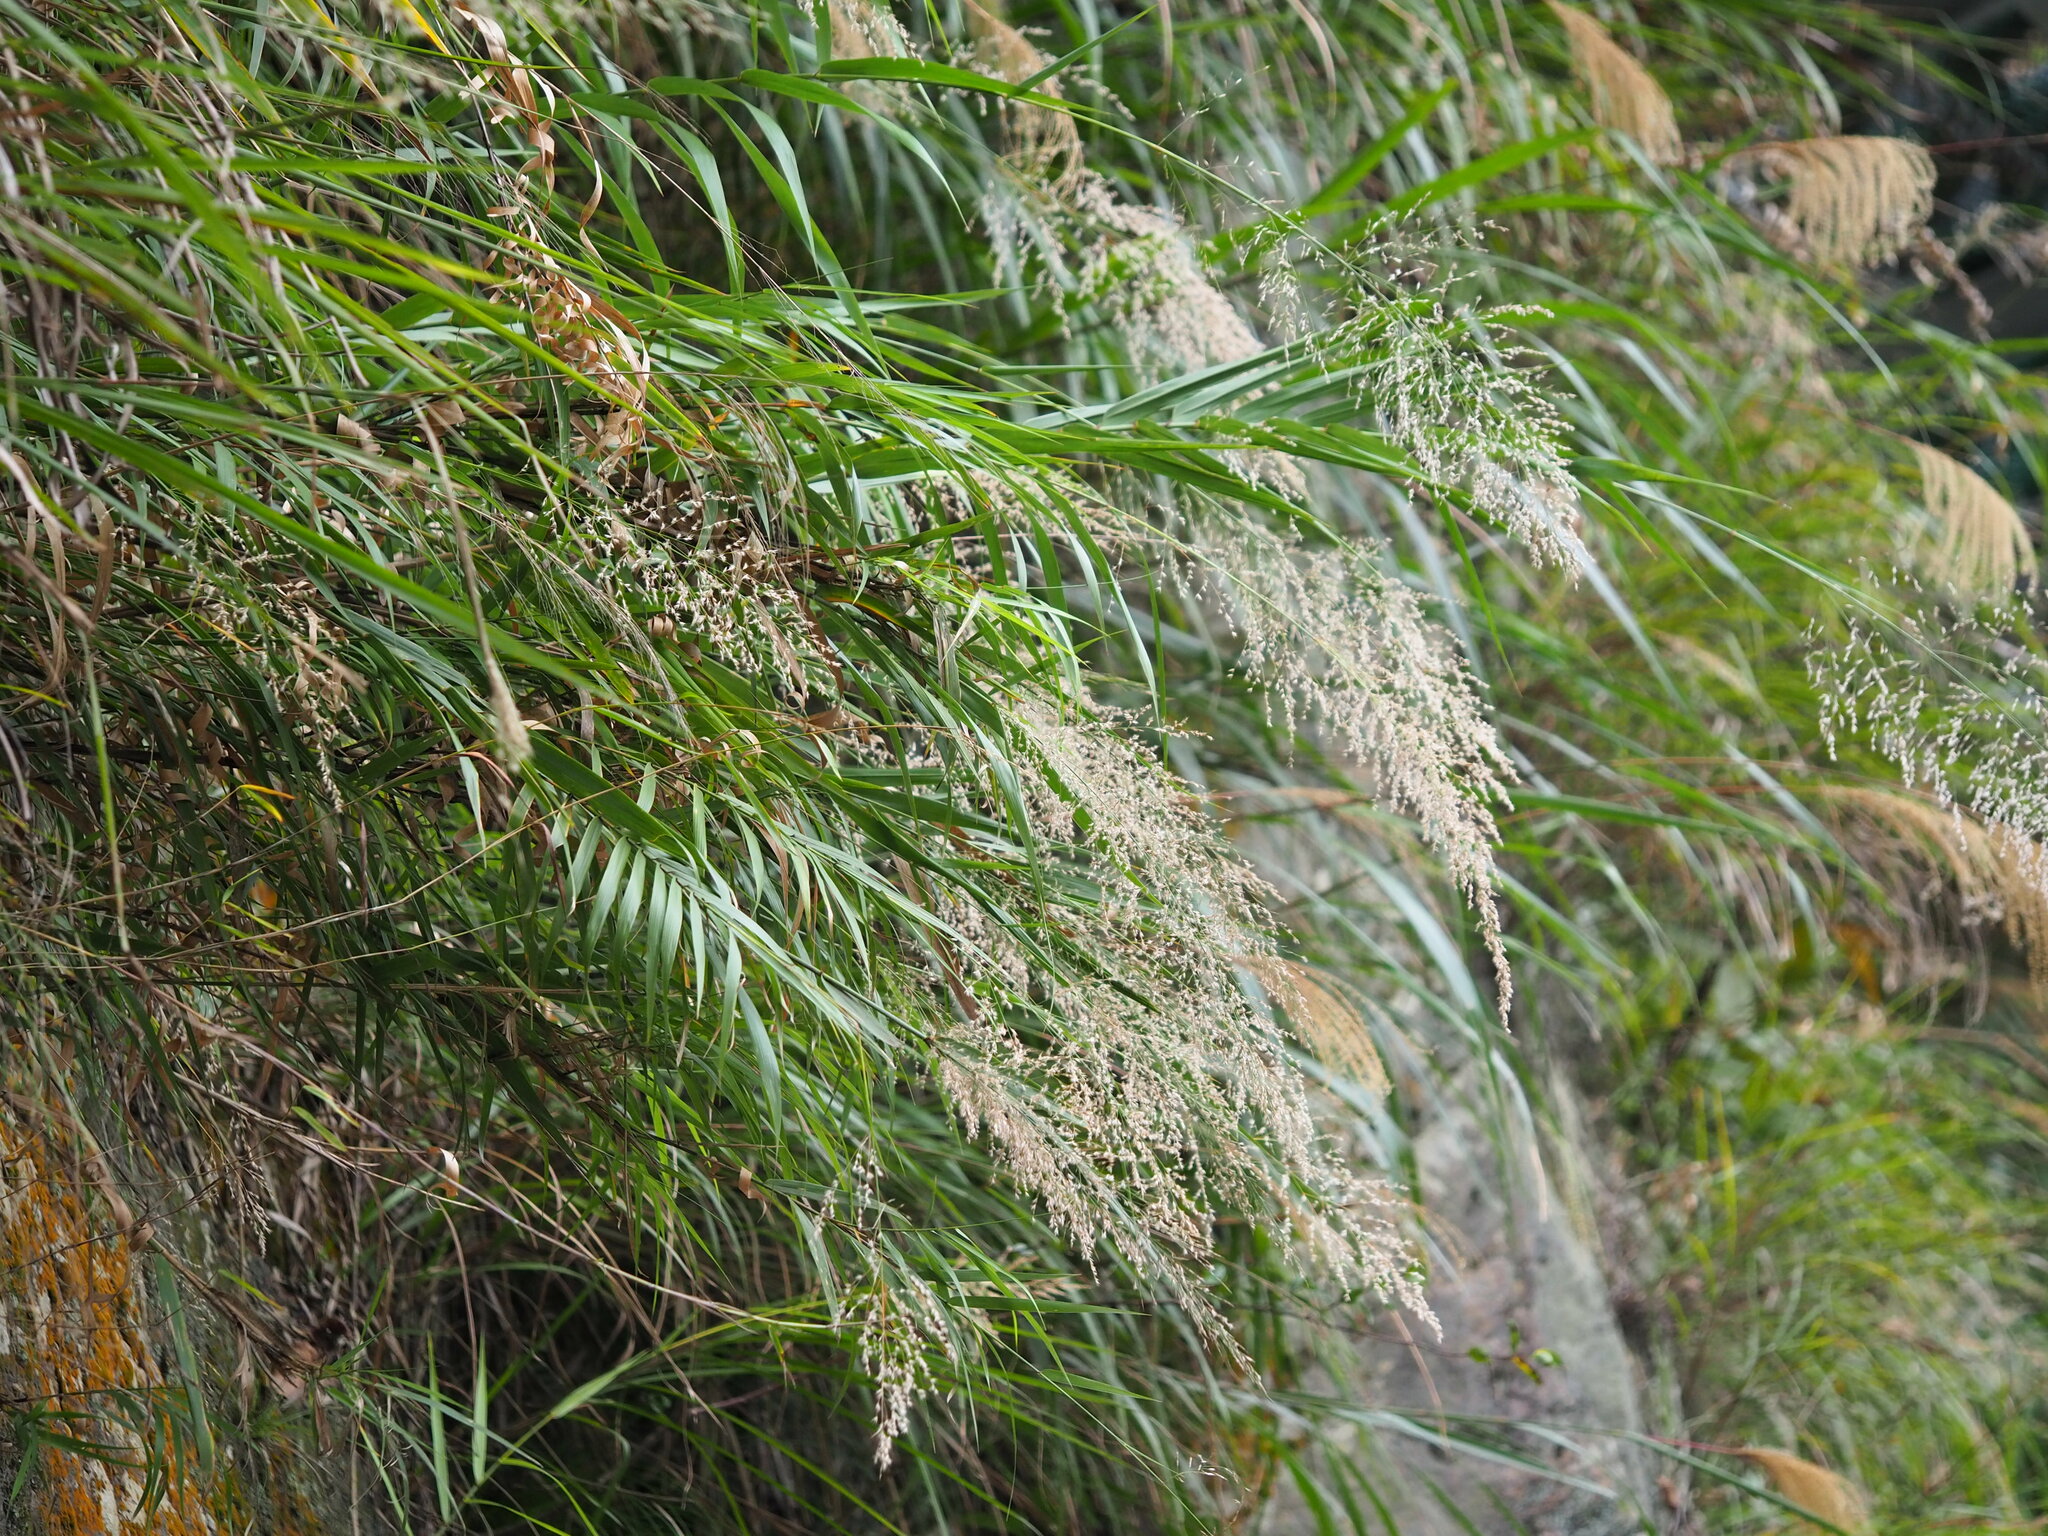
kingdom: Plantae
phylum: Tracheophyta
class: Liliopsida
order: Poales
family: Poaceae
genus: Arundo
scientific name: Arundo formosana
